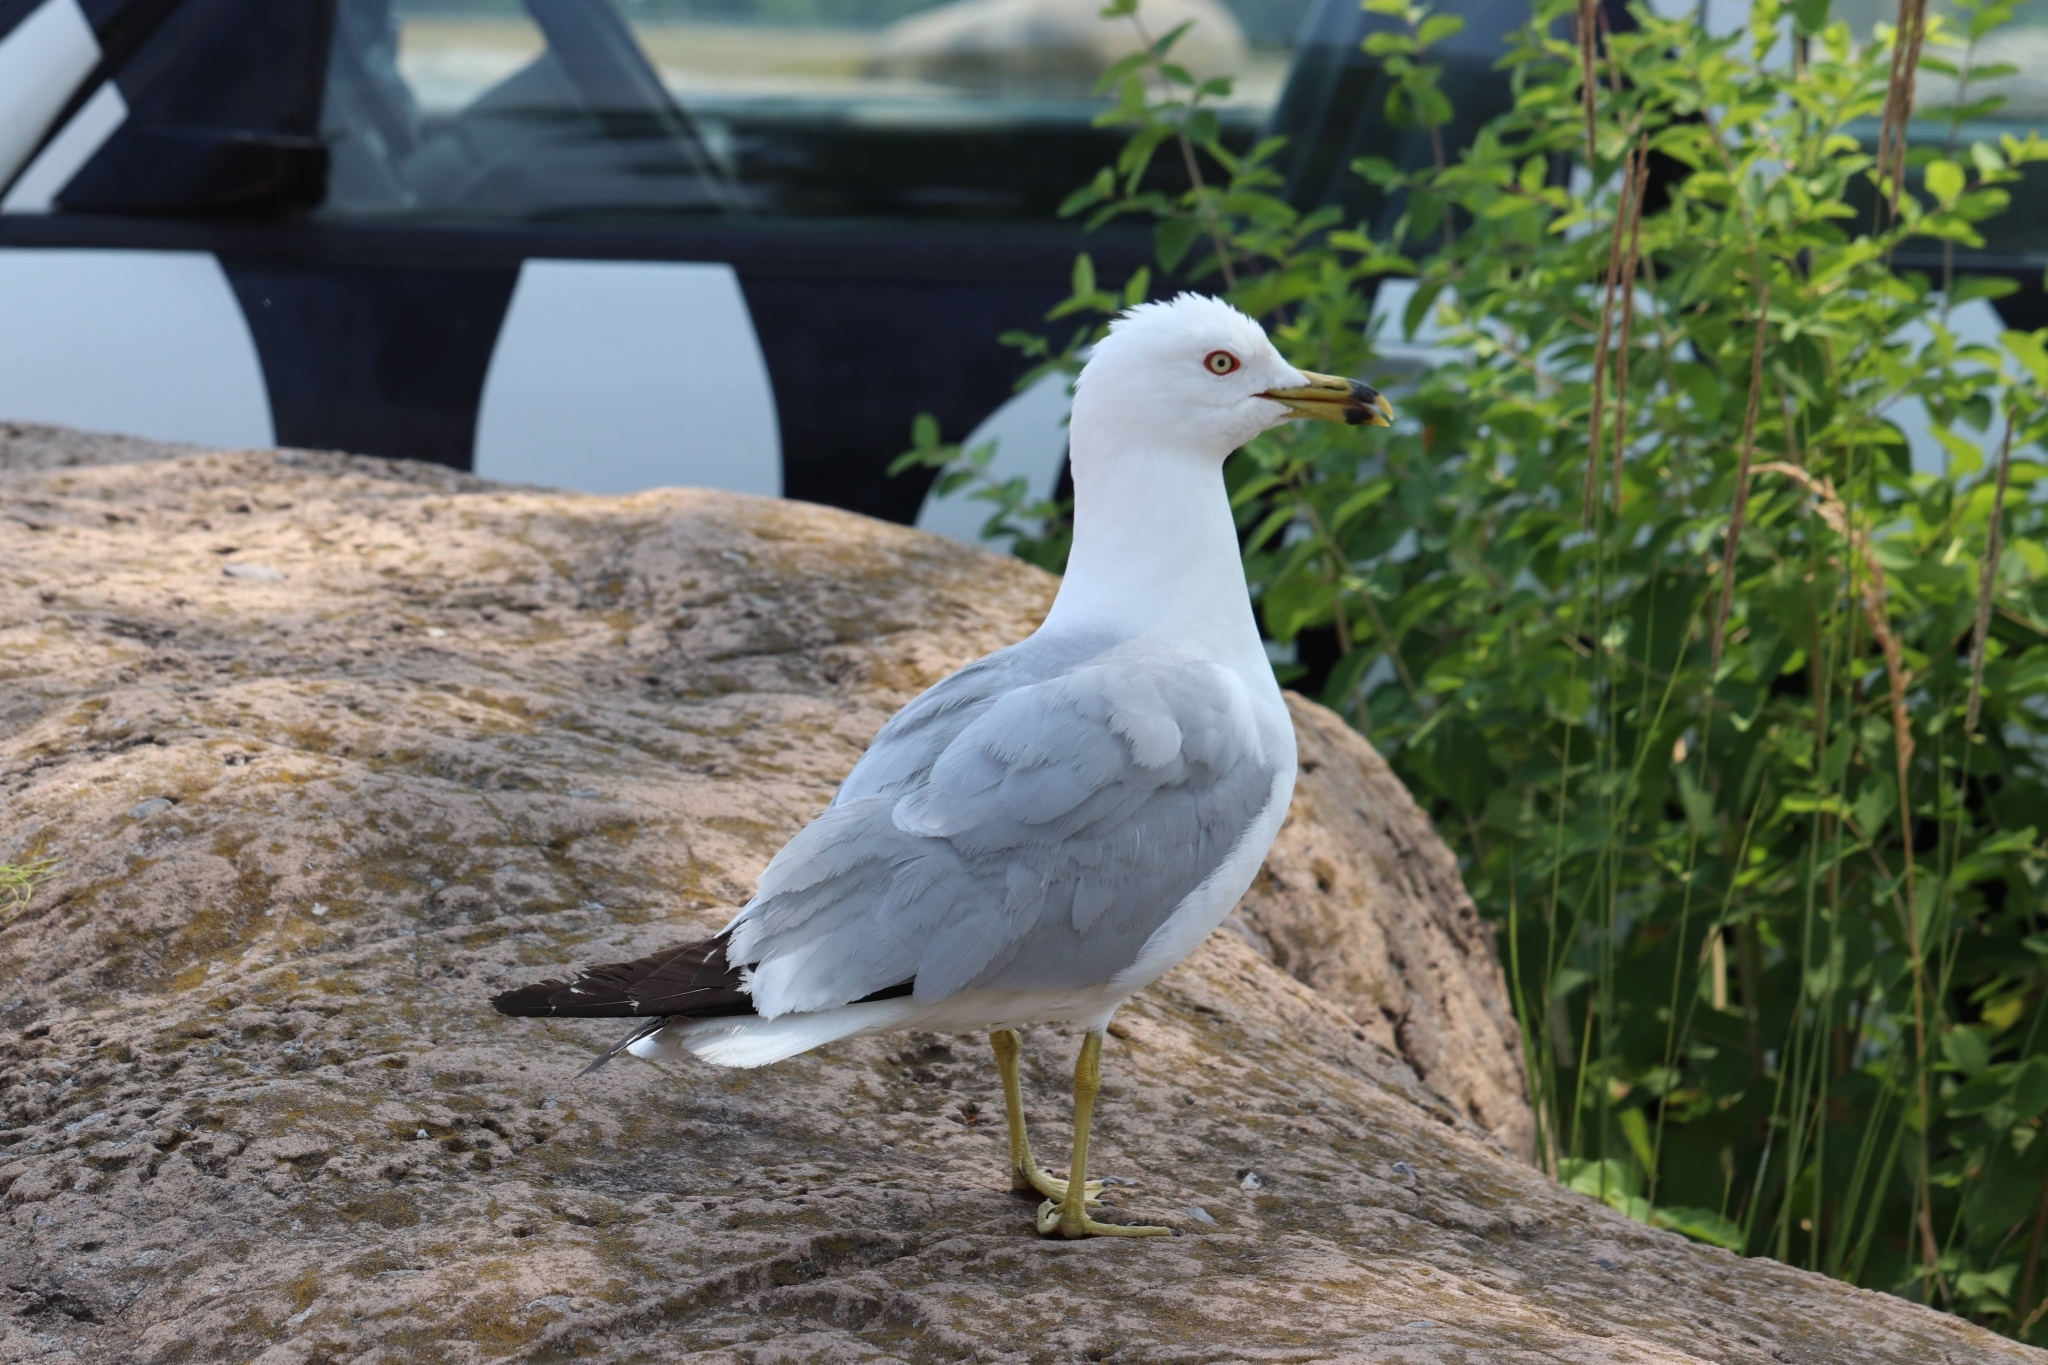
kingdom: Animalia
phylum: Chordata
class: Aves
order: Charadriiformes
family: Laridae
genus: Larus
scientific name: Larus delawarensis
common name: Ring-billed gull
